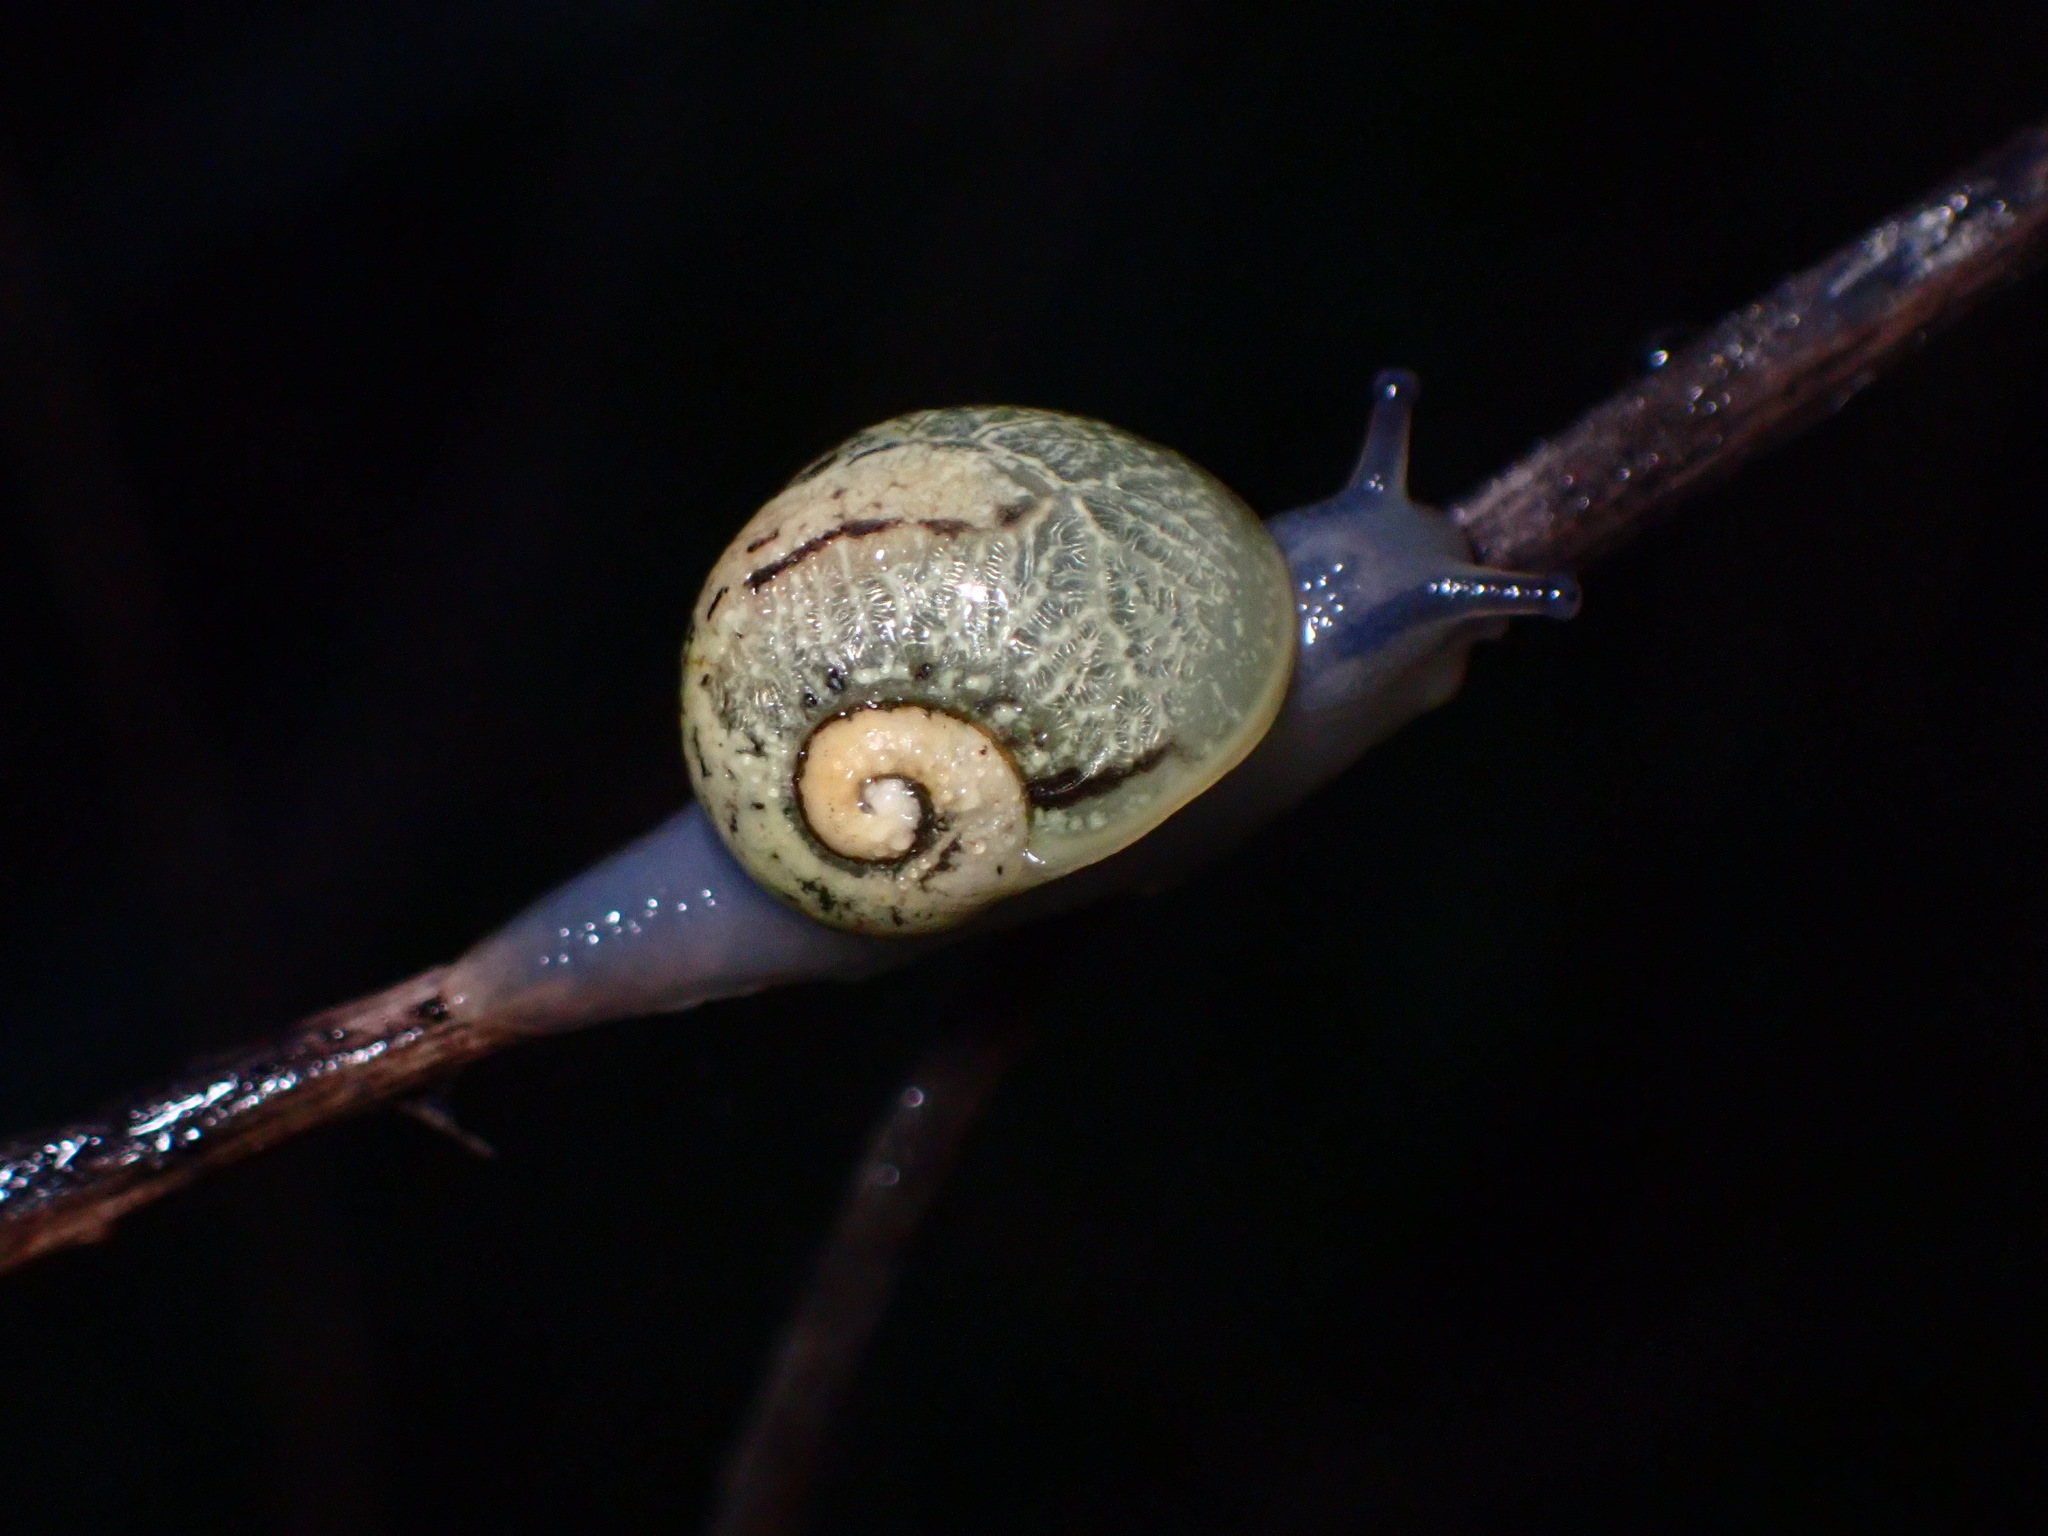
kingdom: Animalia
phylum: Mollusca
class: Gastropoda
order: Stylommatophora
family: Helicidae
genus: Cantareus
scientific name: Cantareus apertus
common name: Green gardensnail
